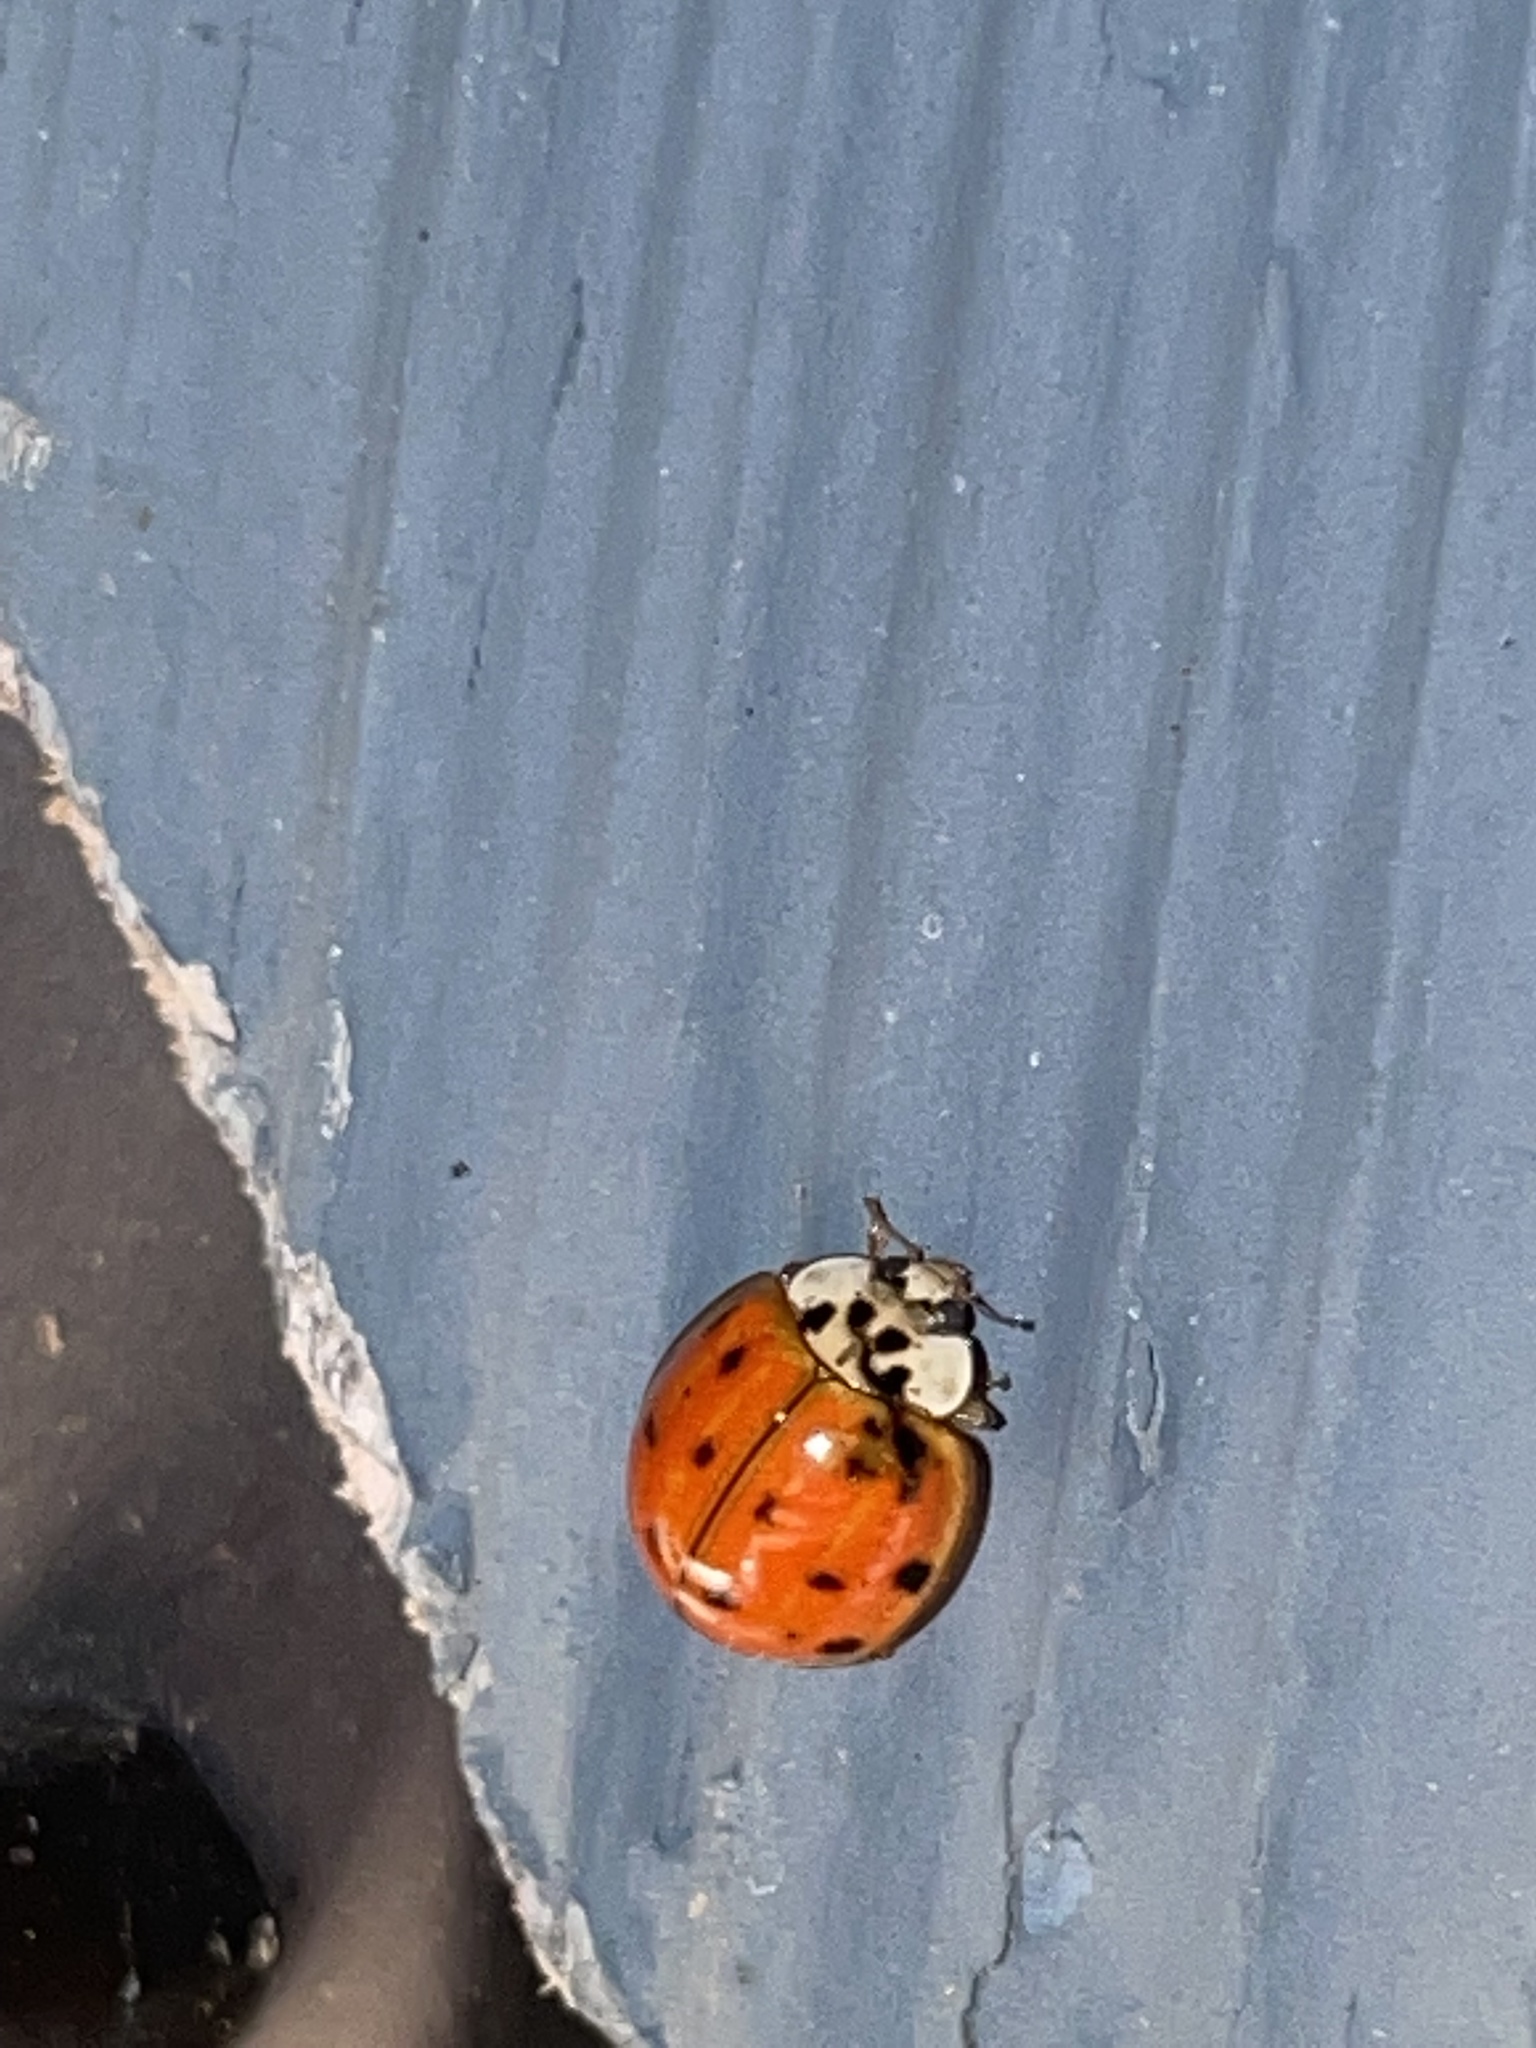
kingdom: Animalia
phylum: Arthropoda
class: Insecta
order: Coleoptera
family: Coccinellidae
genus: Harmonia
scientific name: Harmonia axyridis
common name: Harlequin ladybird
